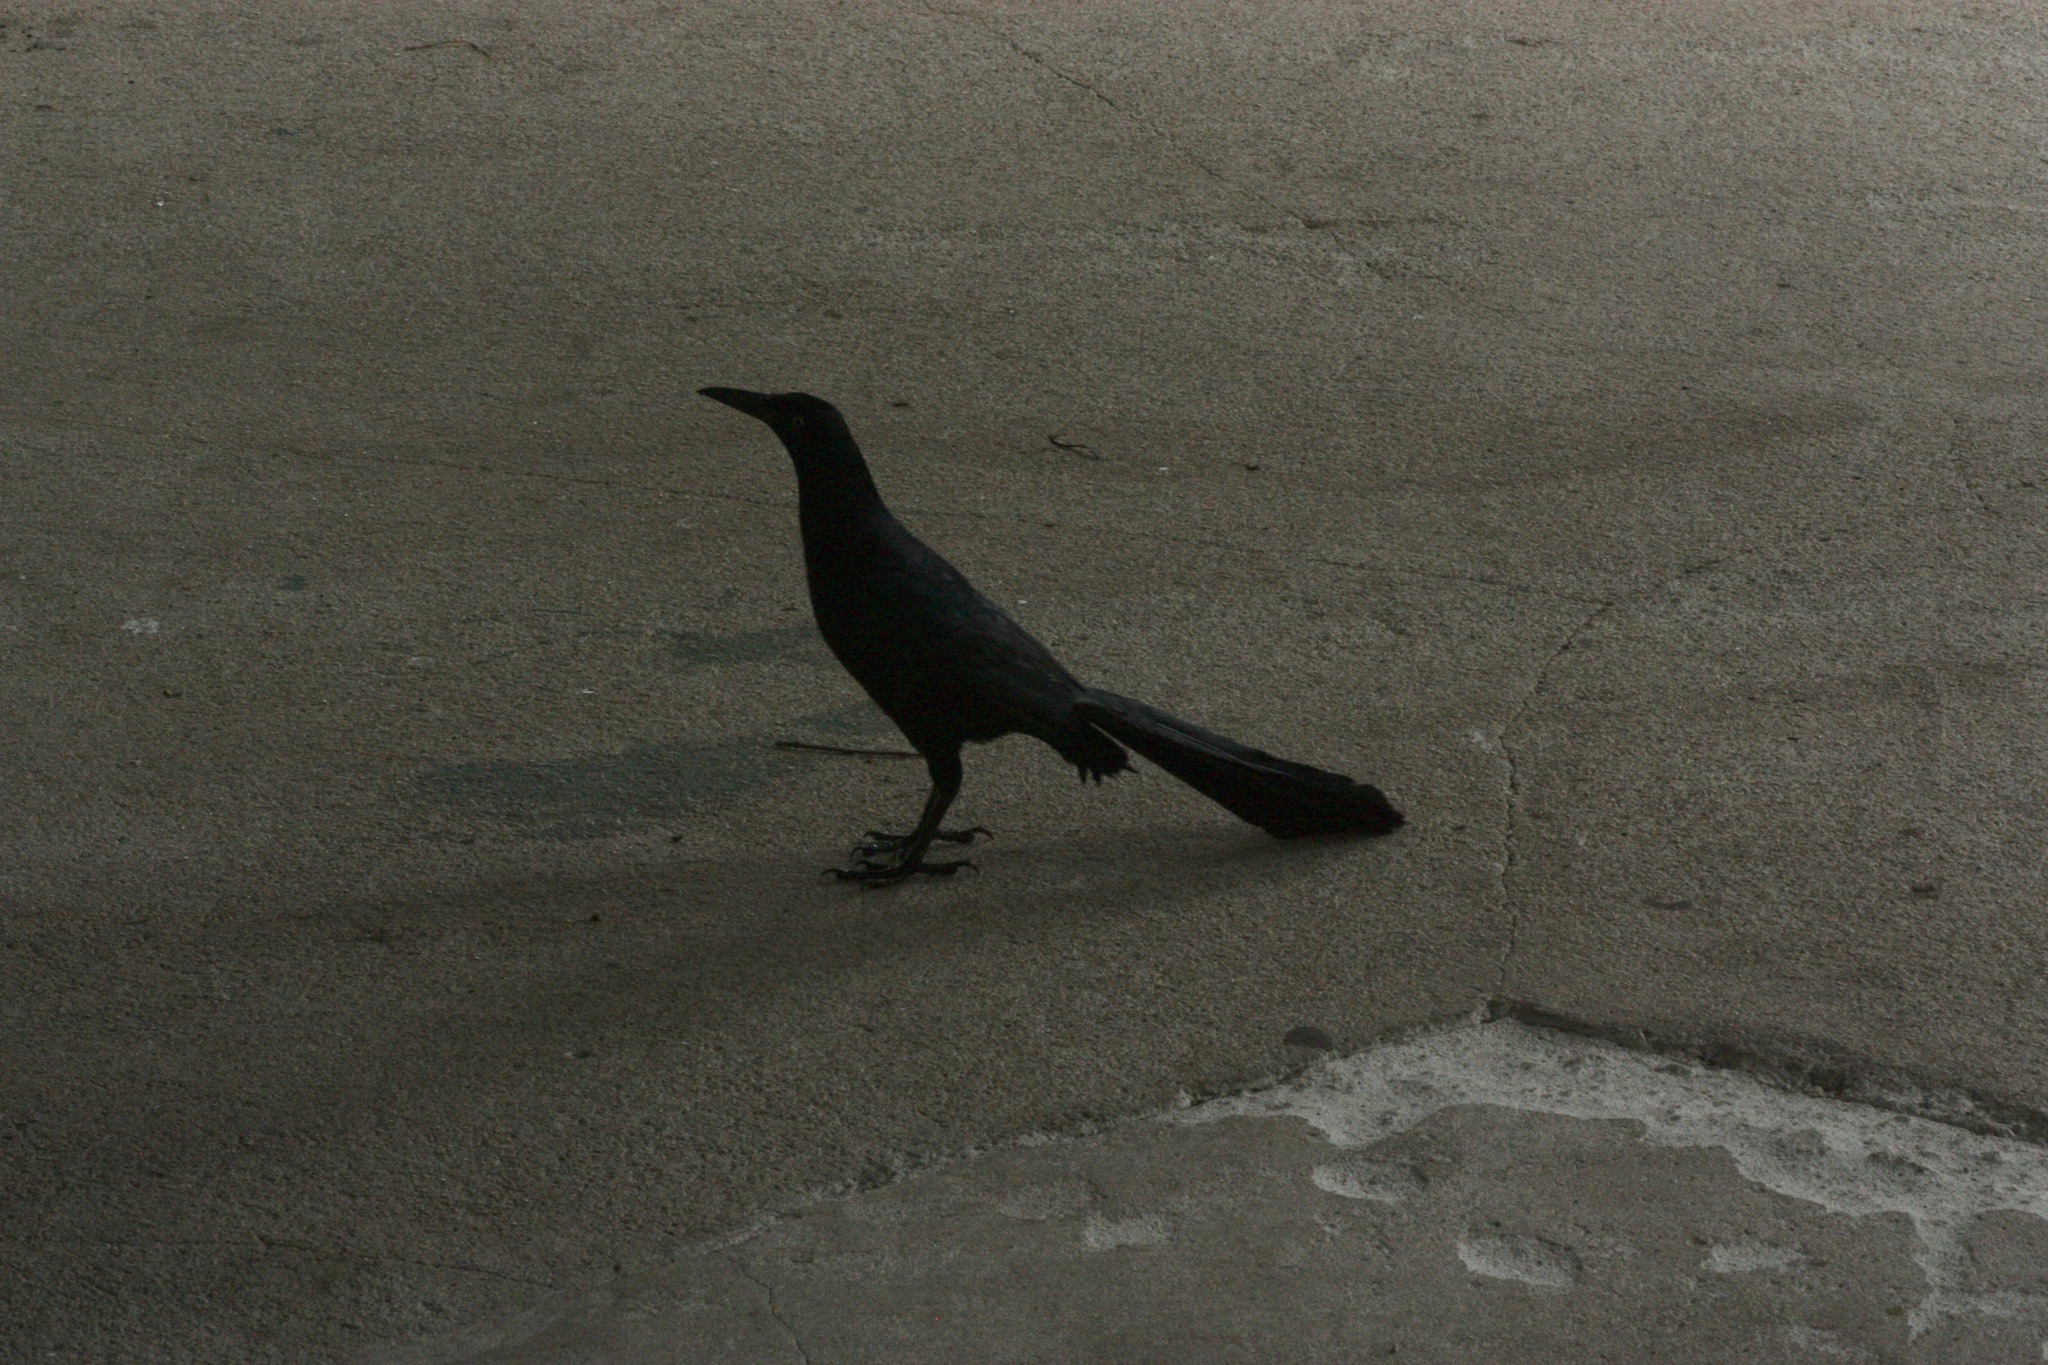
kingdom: Animalia
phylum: Chordata
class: Aves
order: Passeriformes
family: Icteridae
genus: Quiscalus
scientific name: Quiscalus mexicanus
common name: Great-tailed grackle
